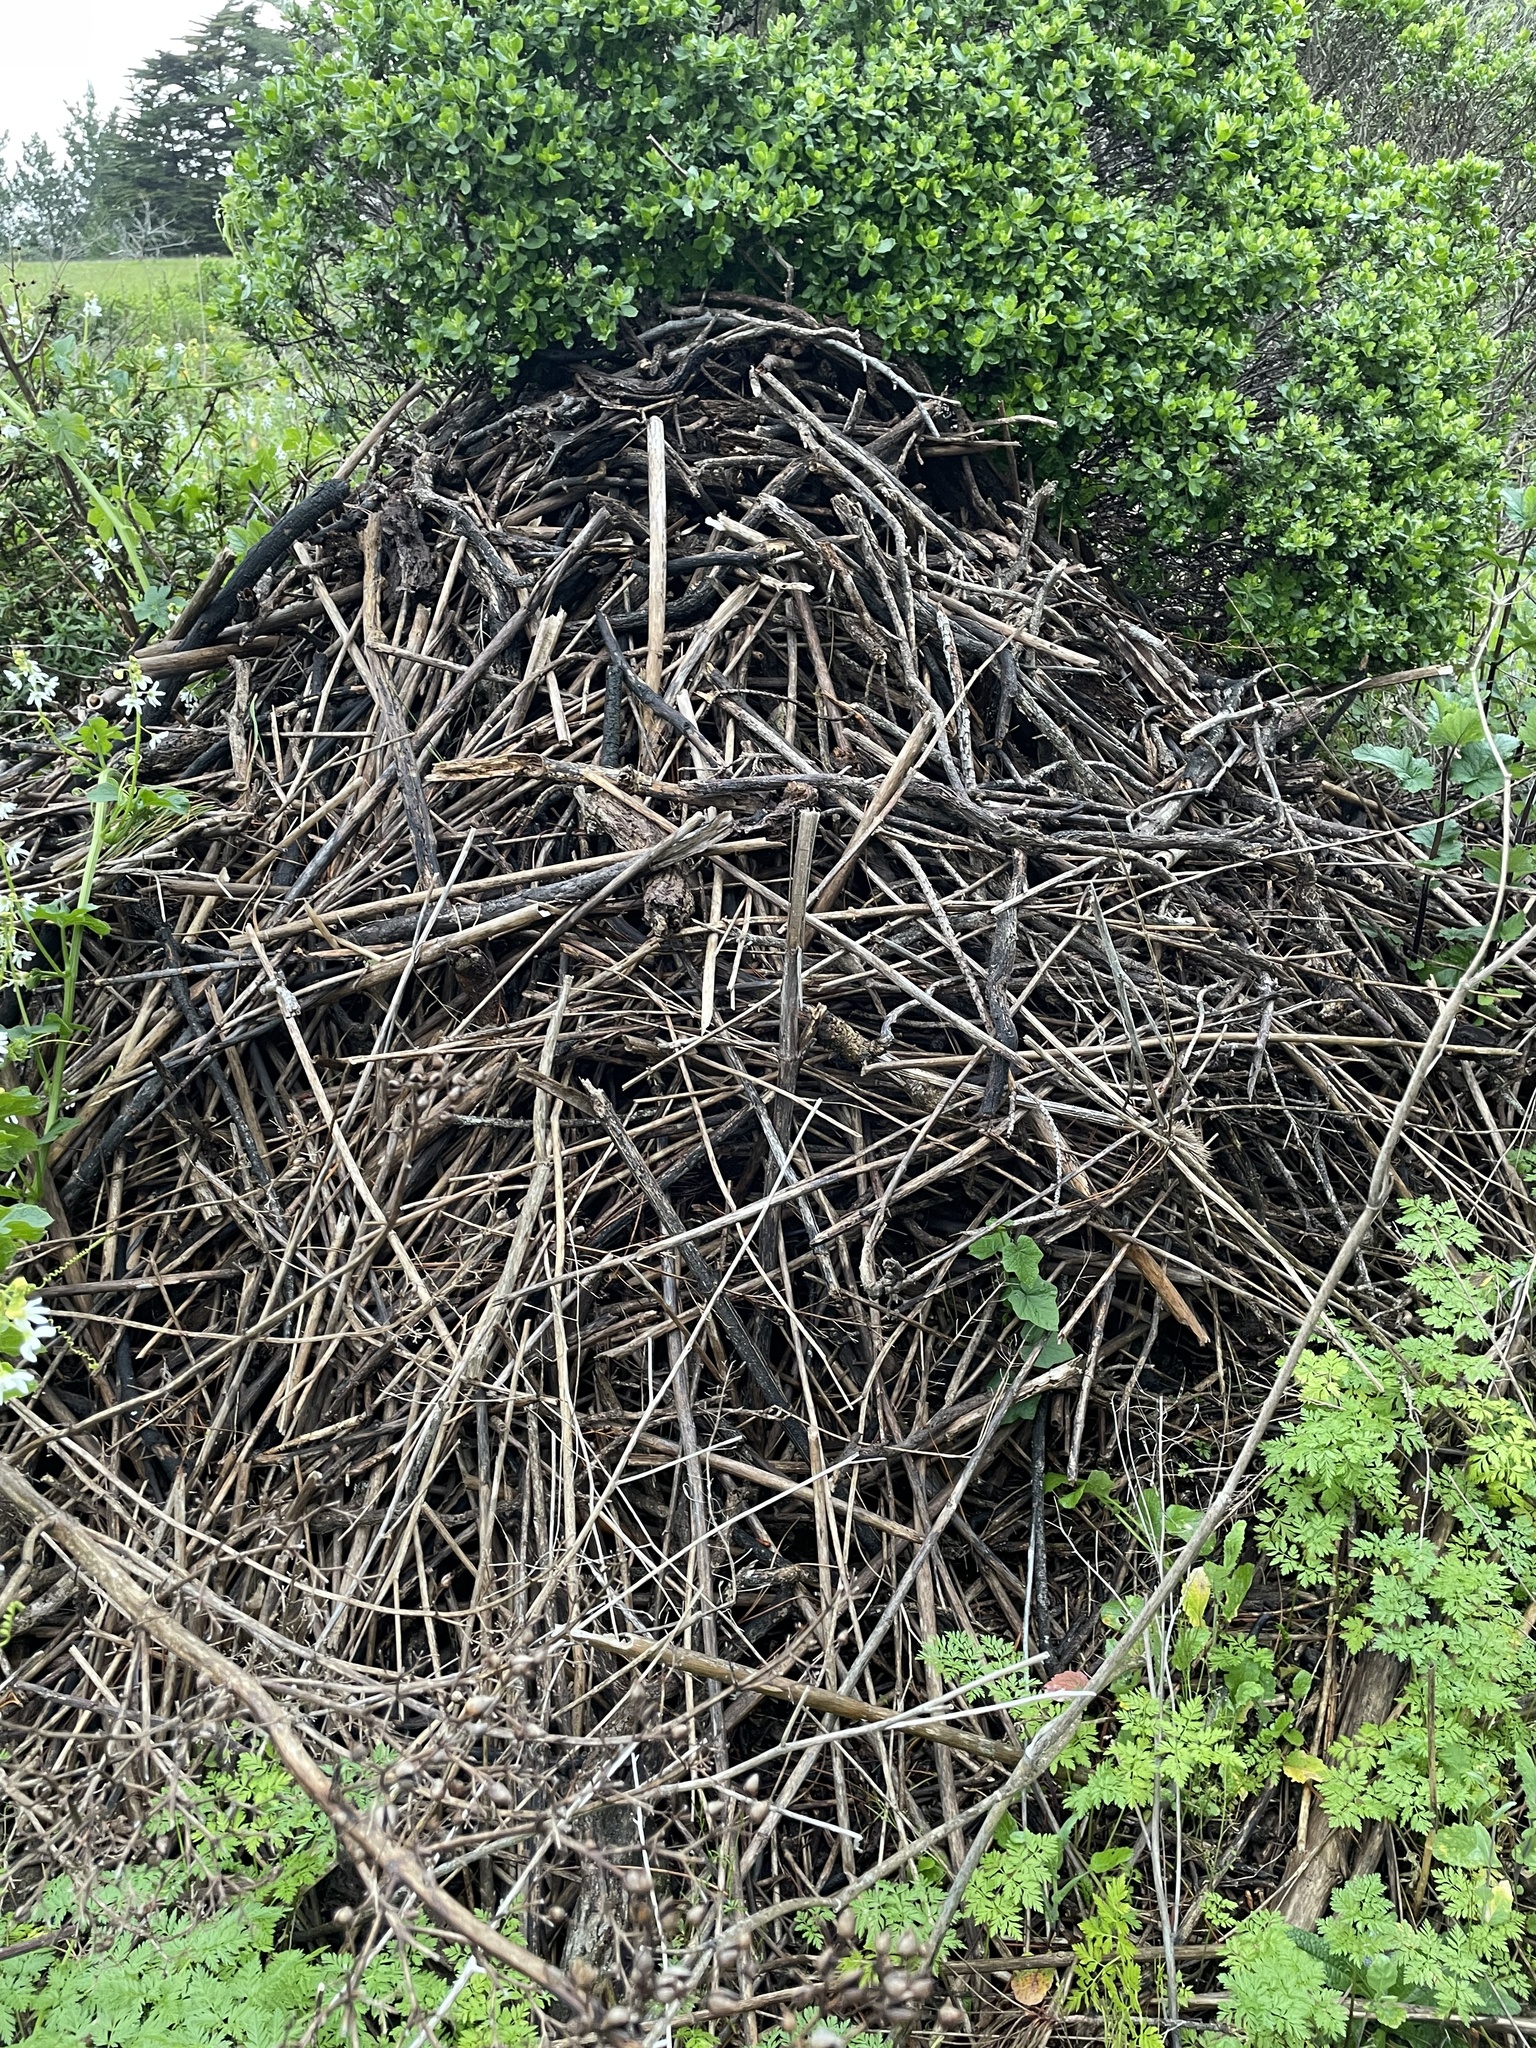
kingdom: Animalia
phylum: Chordata
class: Mammalia
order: Rodentia
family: Cricetidae
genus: Neotoma
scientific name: Neotoma fuscipes
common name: Dusky-footed woodrat
